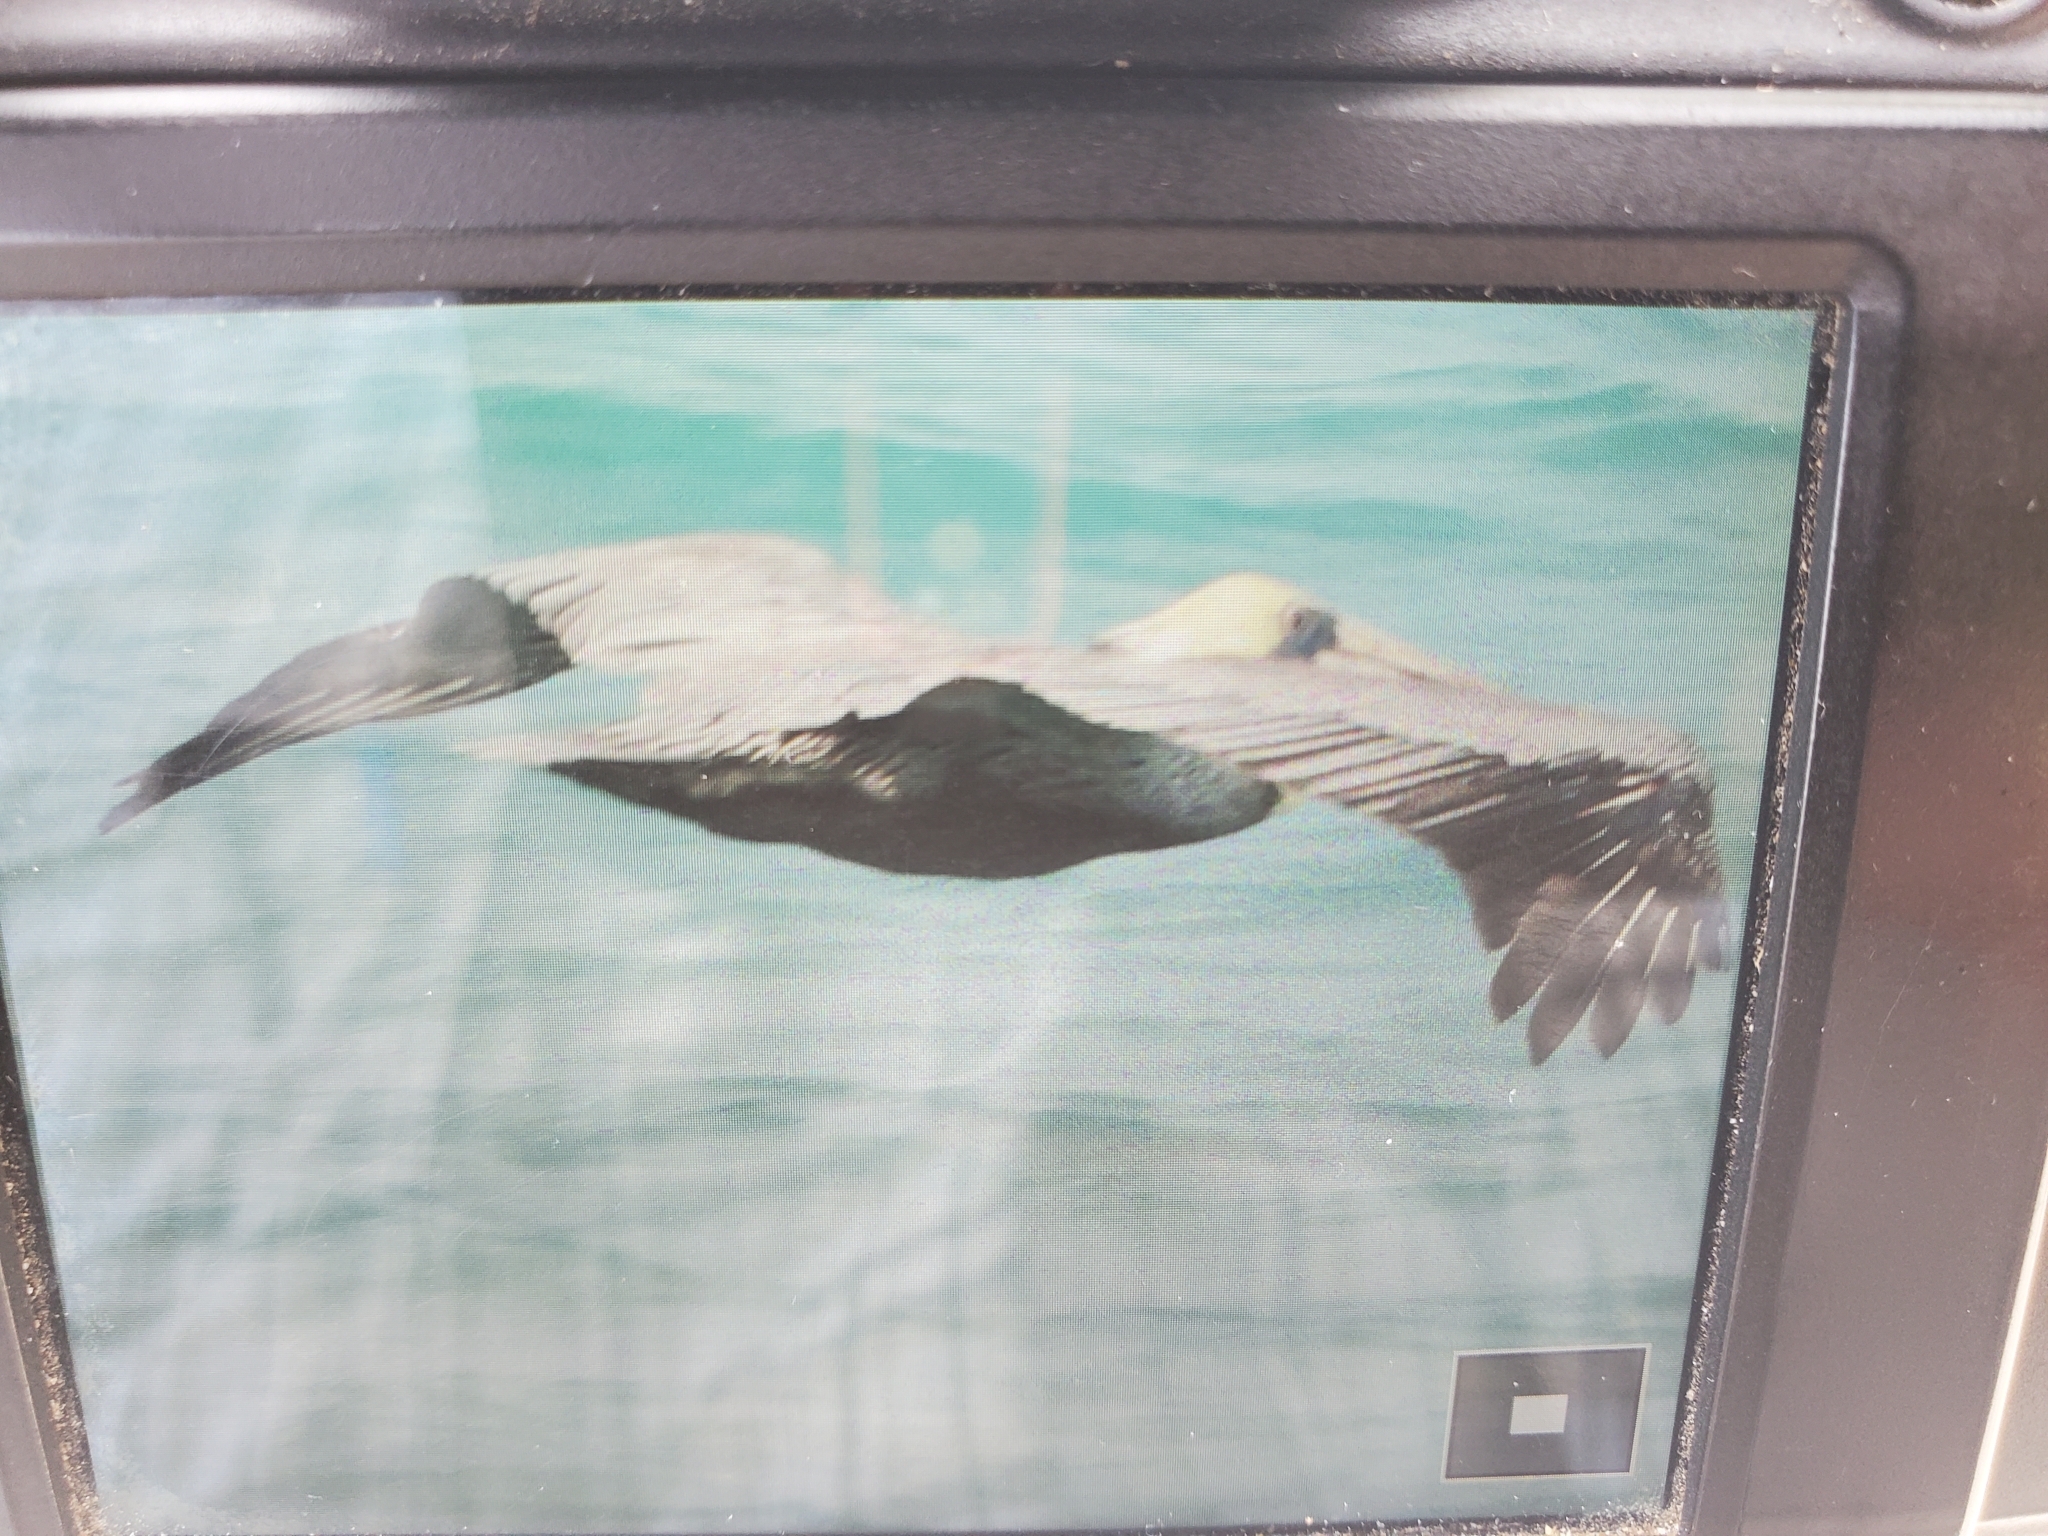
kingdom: Animalia
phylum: Chordata
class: Aves
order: Pelecaniformes
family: Pelecanidae
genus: Pelecanus
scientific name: Pelecanus occidentalis
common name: Brown pelican
